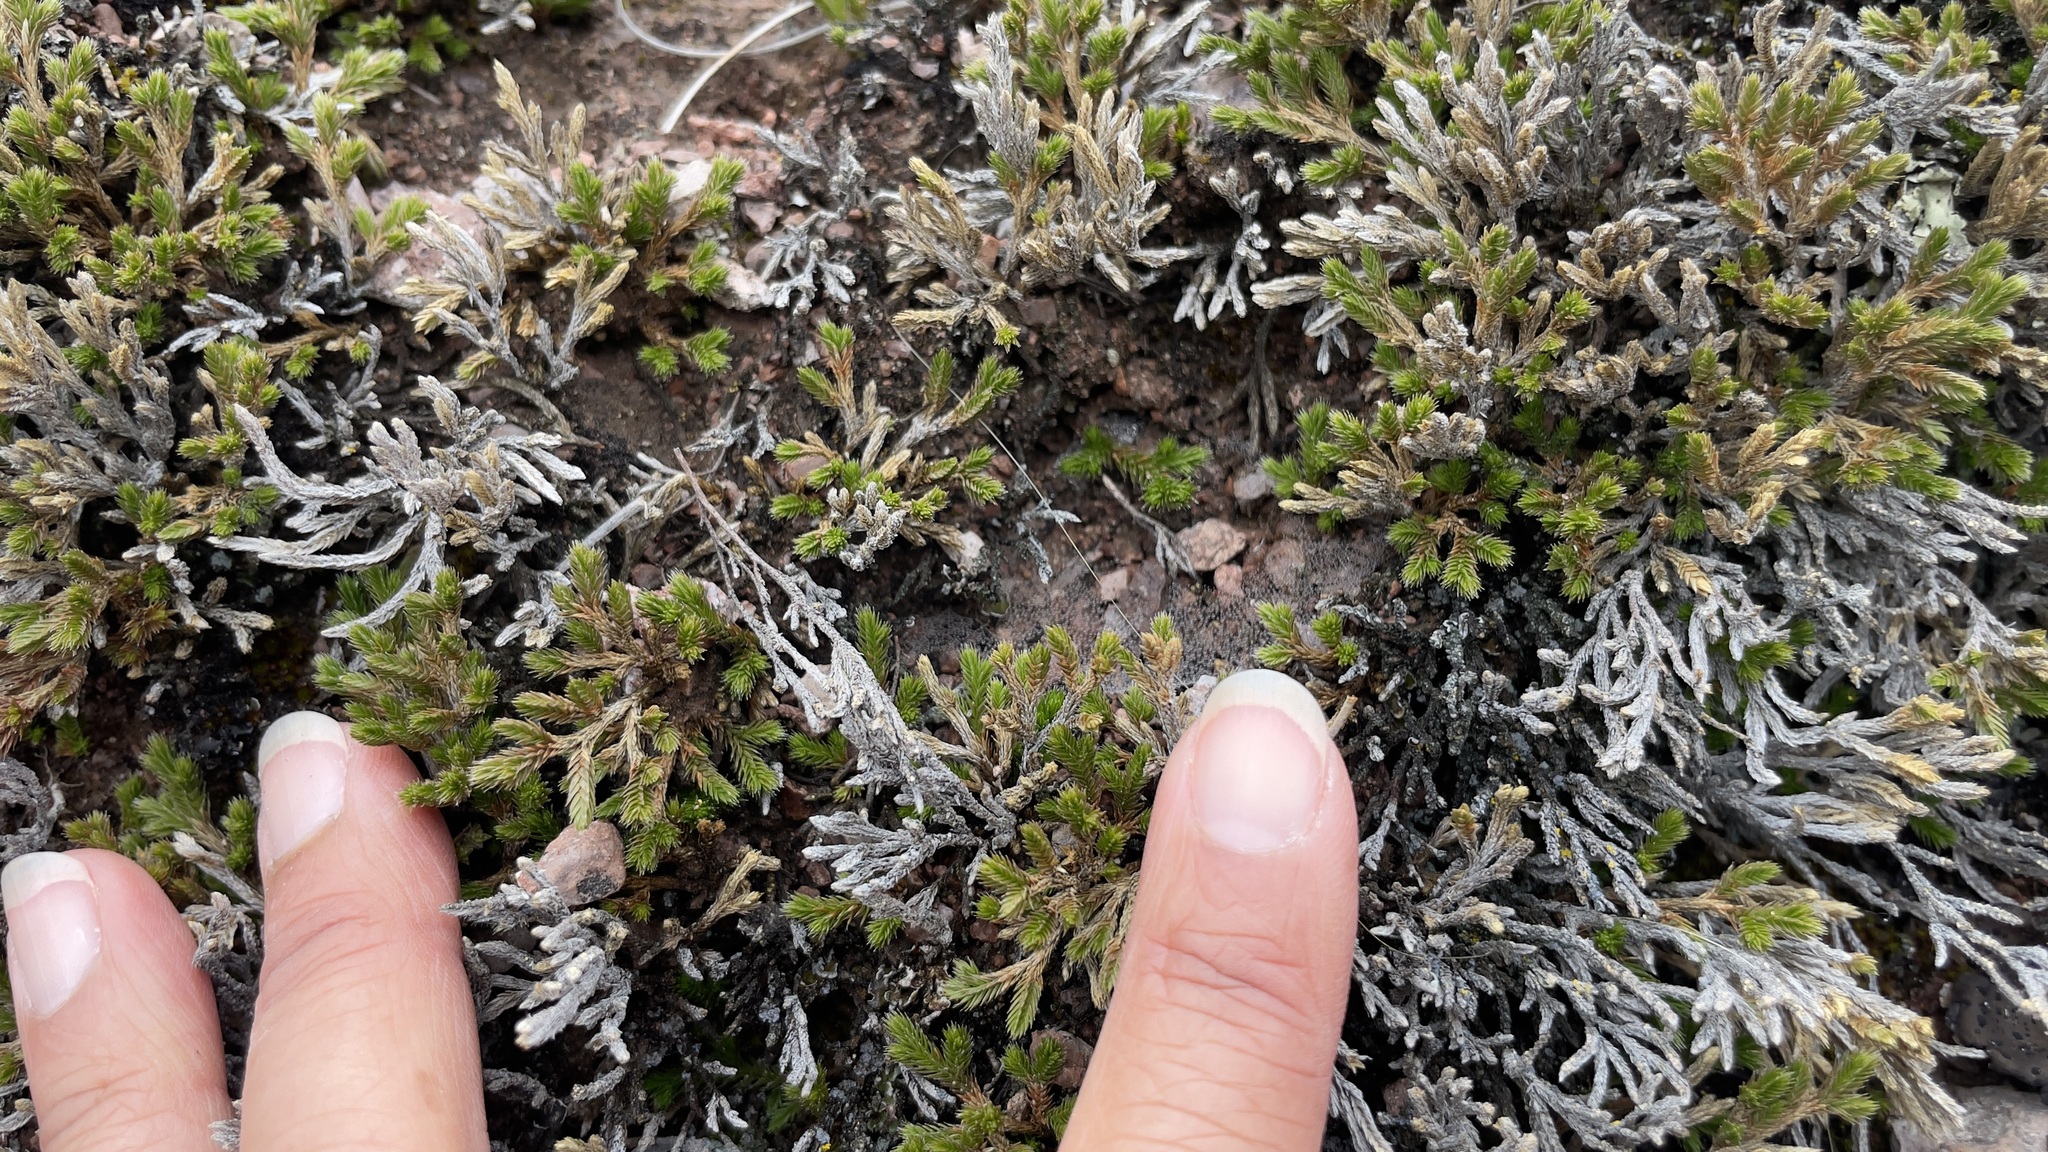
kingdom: Plantae
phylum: Tracheophyta
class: Lycopodiopsida
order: Selaginellales
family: Selaginellaceae
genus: Selaginella
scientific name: Selaginella bigelovii
